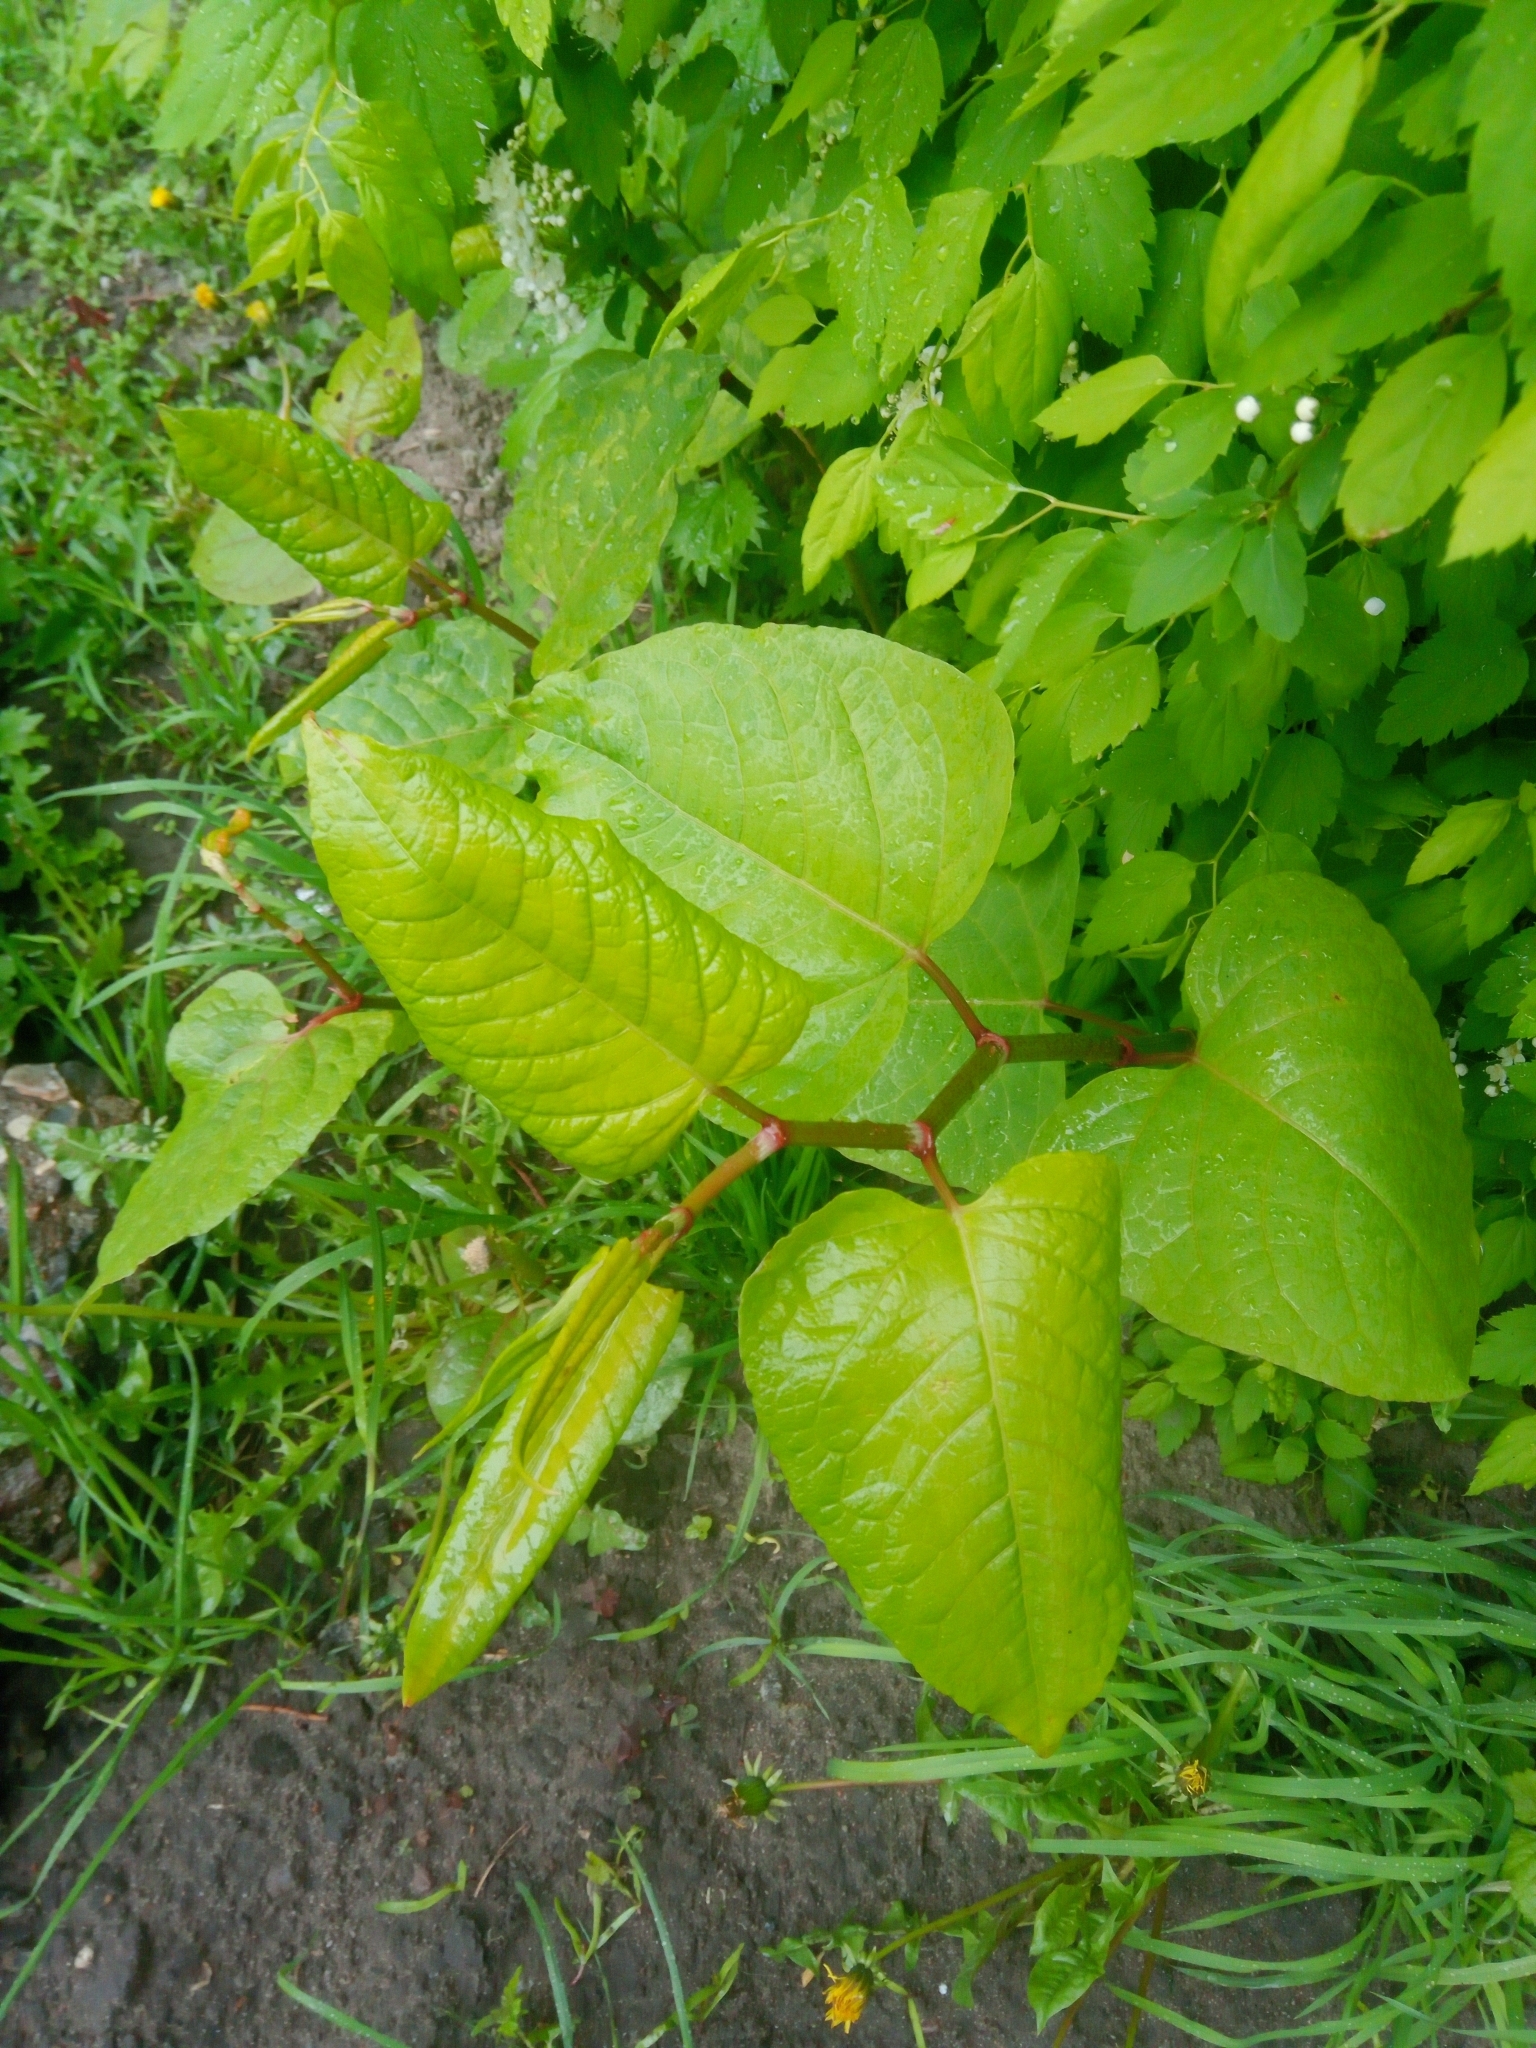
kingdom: Plantae
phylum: Tracheophyta
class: Magnoliopsida
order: Caryophyllales
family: Polygonaceae
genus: Reynoutria
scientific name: Reynoutria bohemica
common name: Bohemian knotweed
